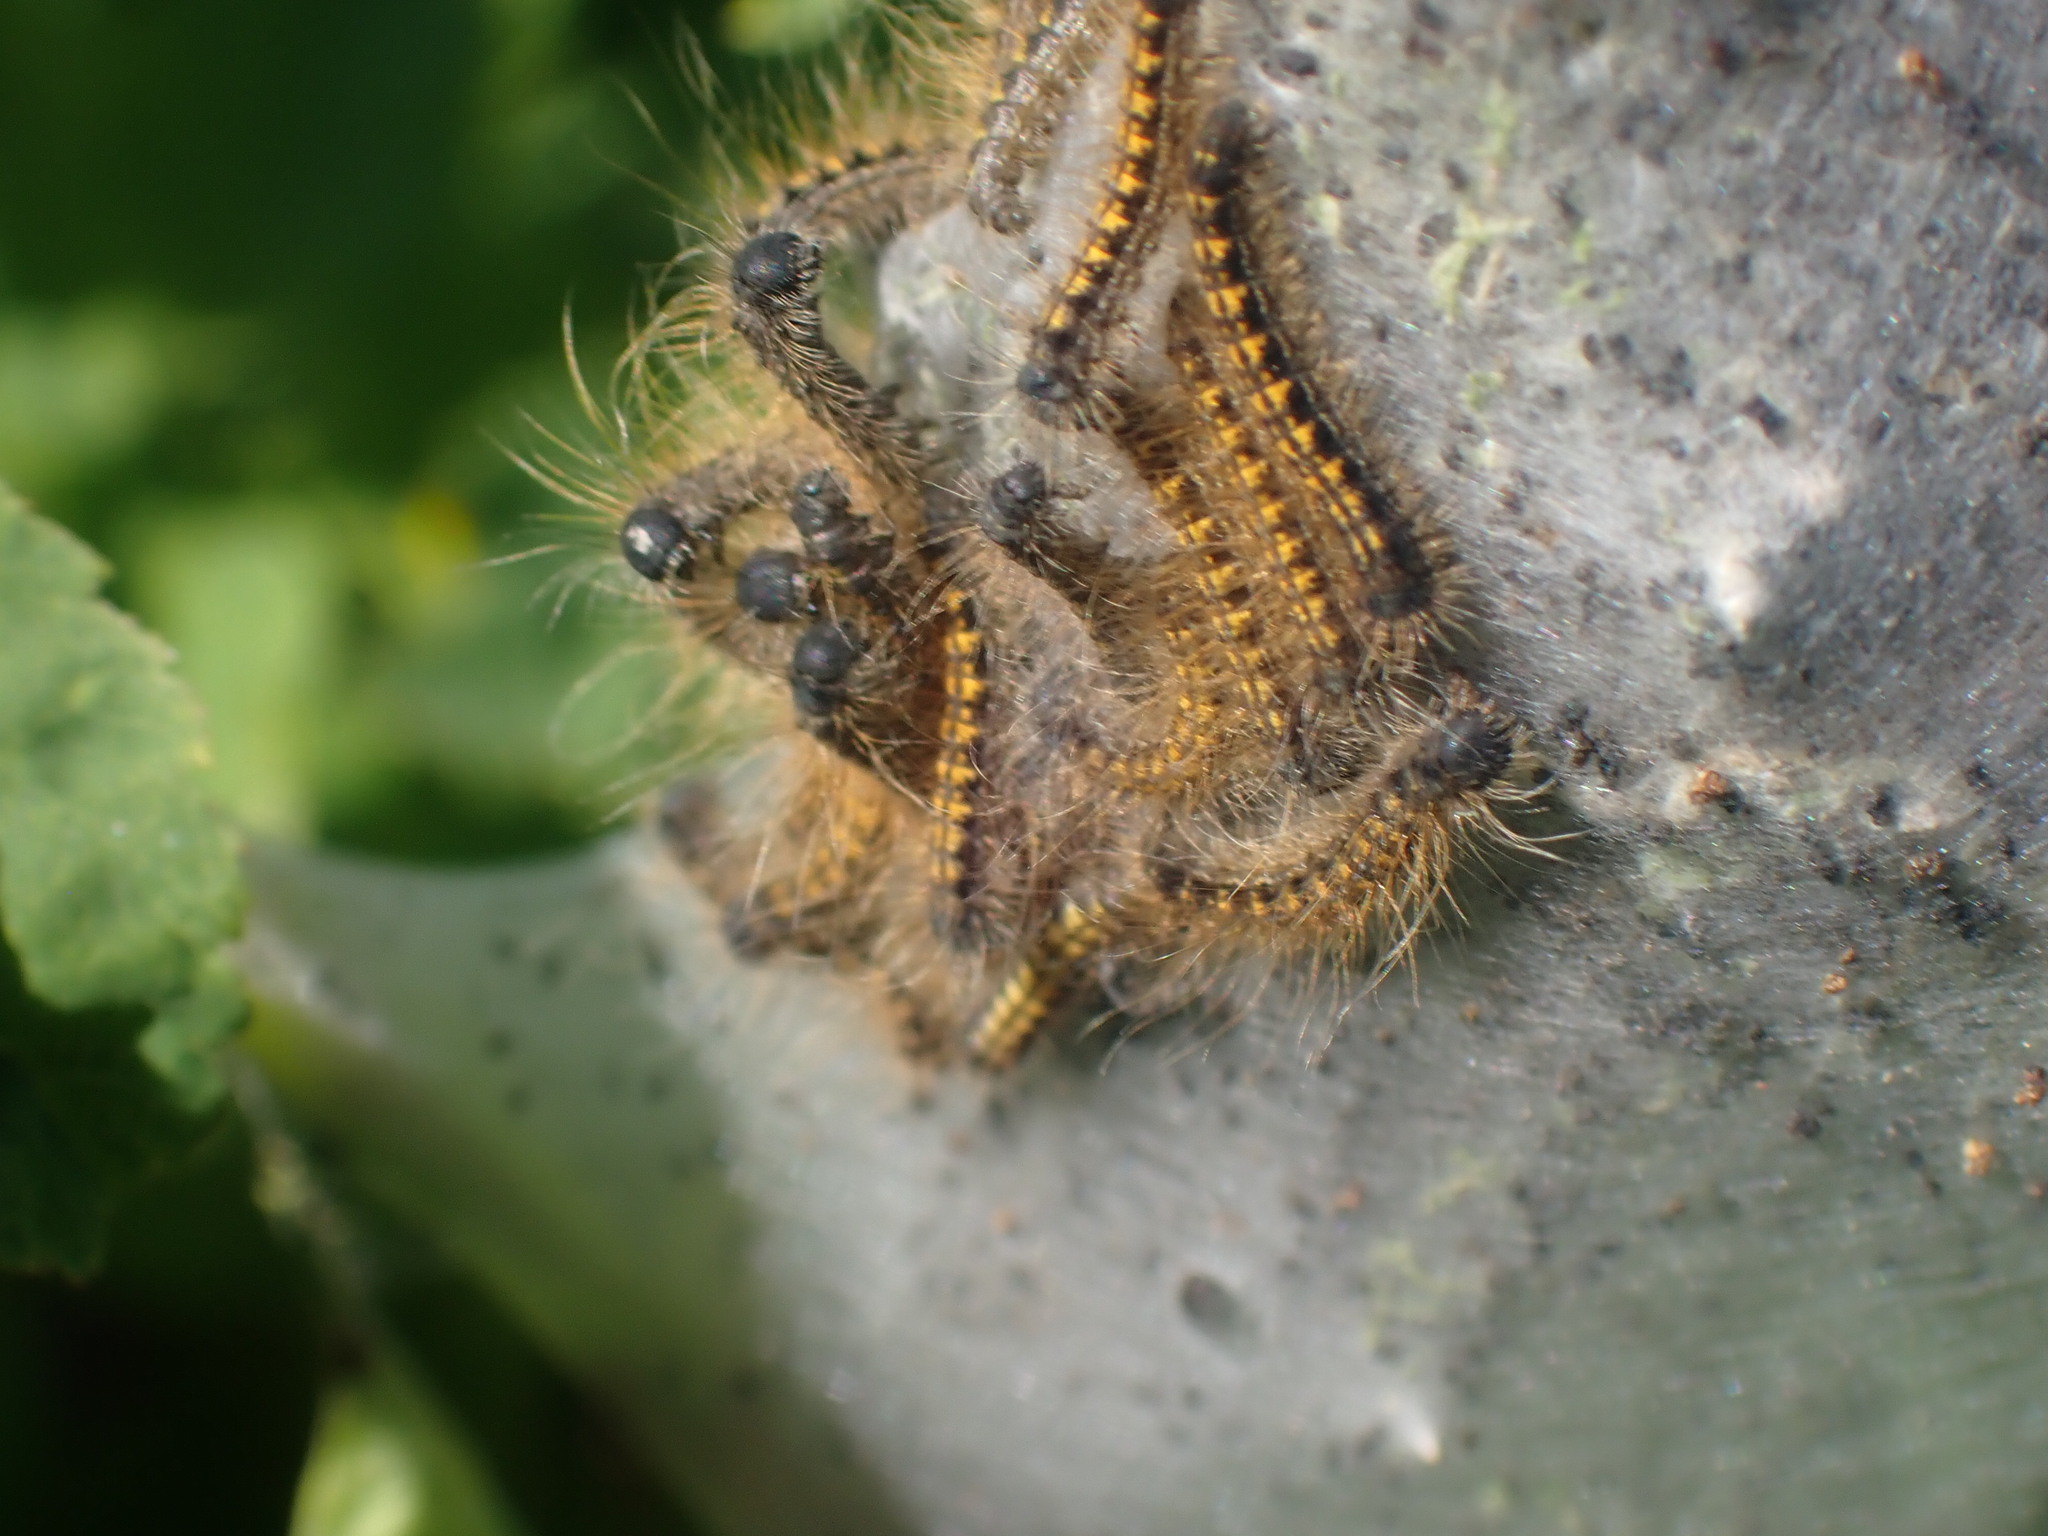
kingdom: Animalia
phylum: Arthropoda
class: Insecta
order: Lepidoptera
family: Lasiocampidae
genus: Malacosoma
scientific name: Malacosoma californica
